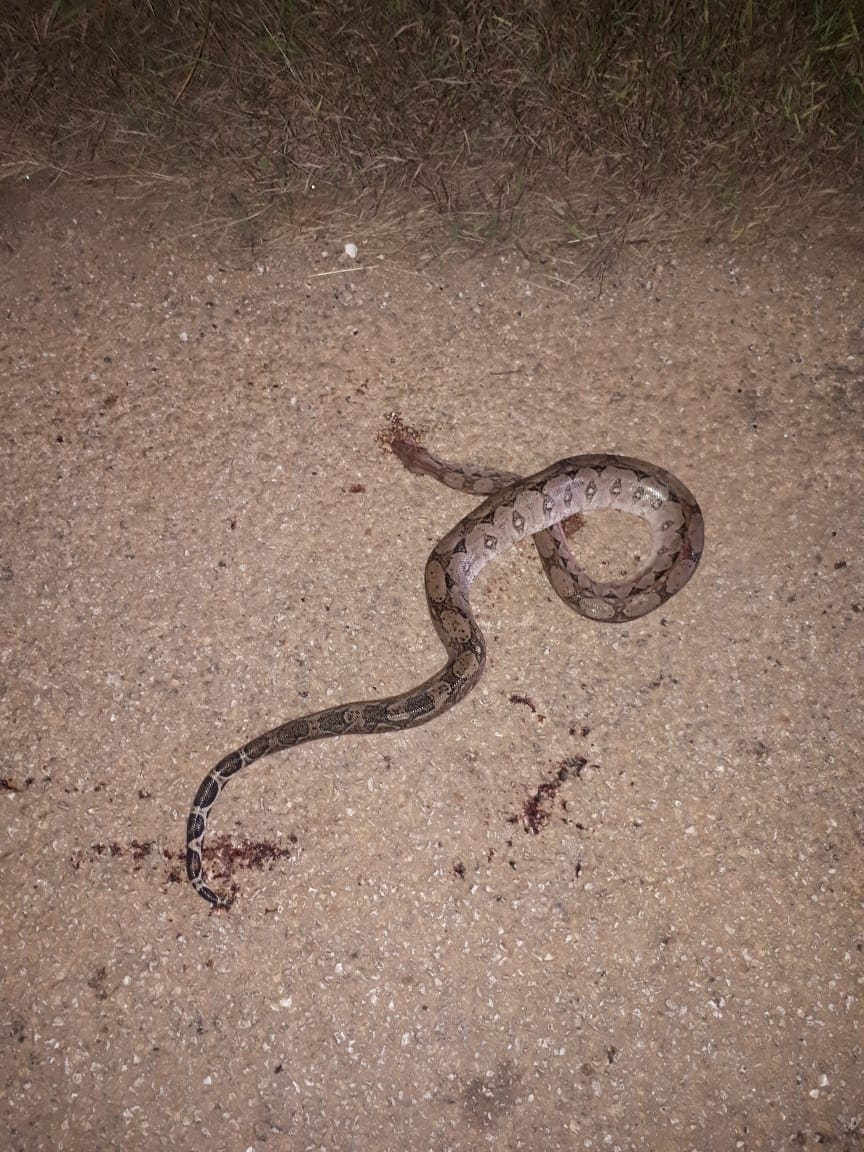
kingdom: Animalia
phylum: Chordata
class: Squamata
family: Boidae
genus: Boa
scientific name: Boa imperator
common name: Central american boa
